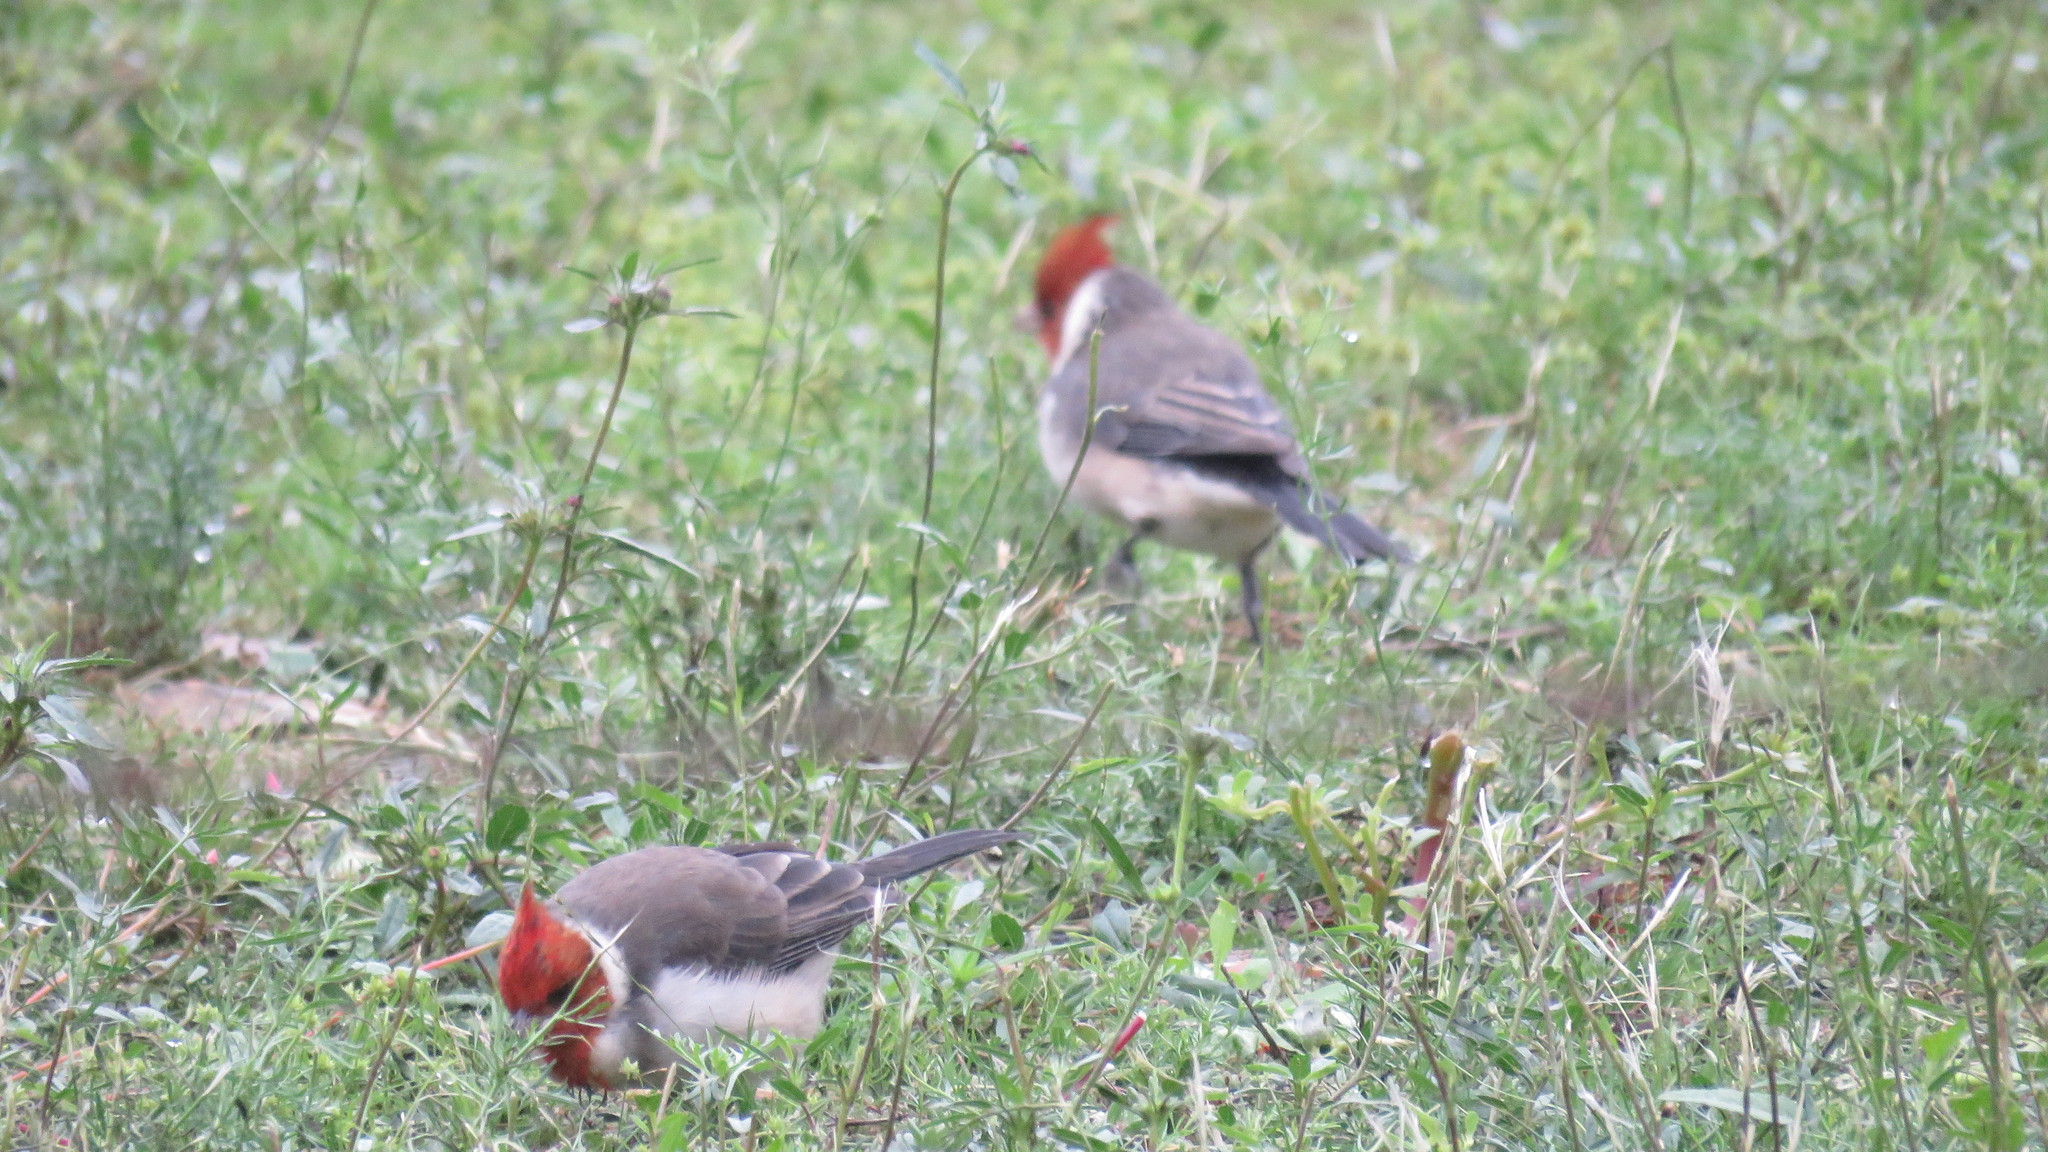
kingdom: Animalia
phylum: Chordata
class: Aves
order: Passeriformes
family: Thraupidae
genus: Paroaria
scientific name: Paroaria coronata
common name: Red-crested cardinal
